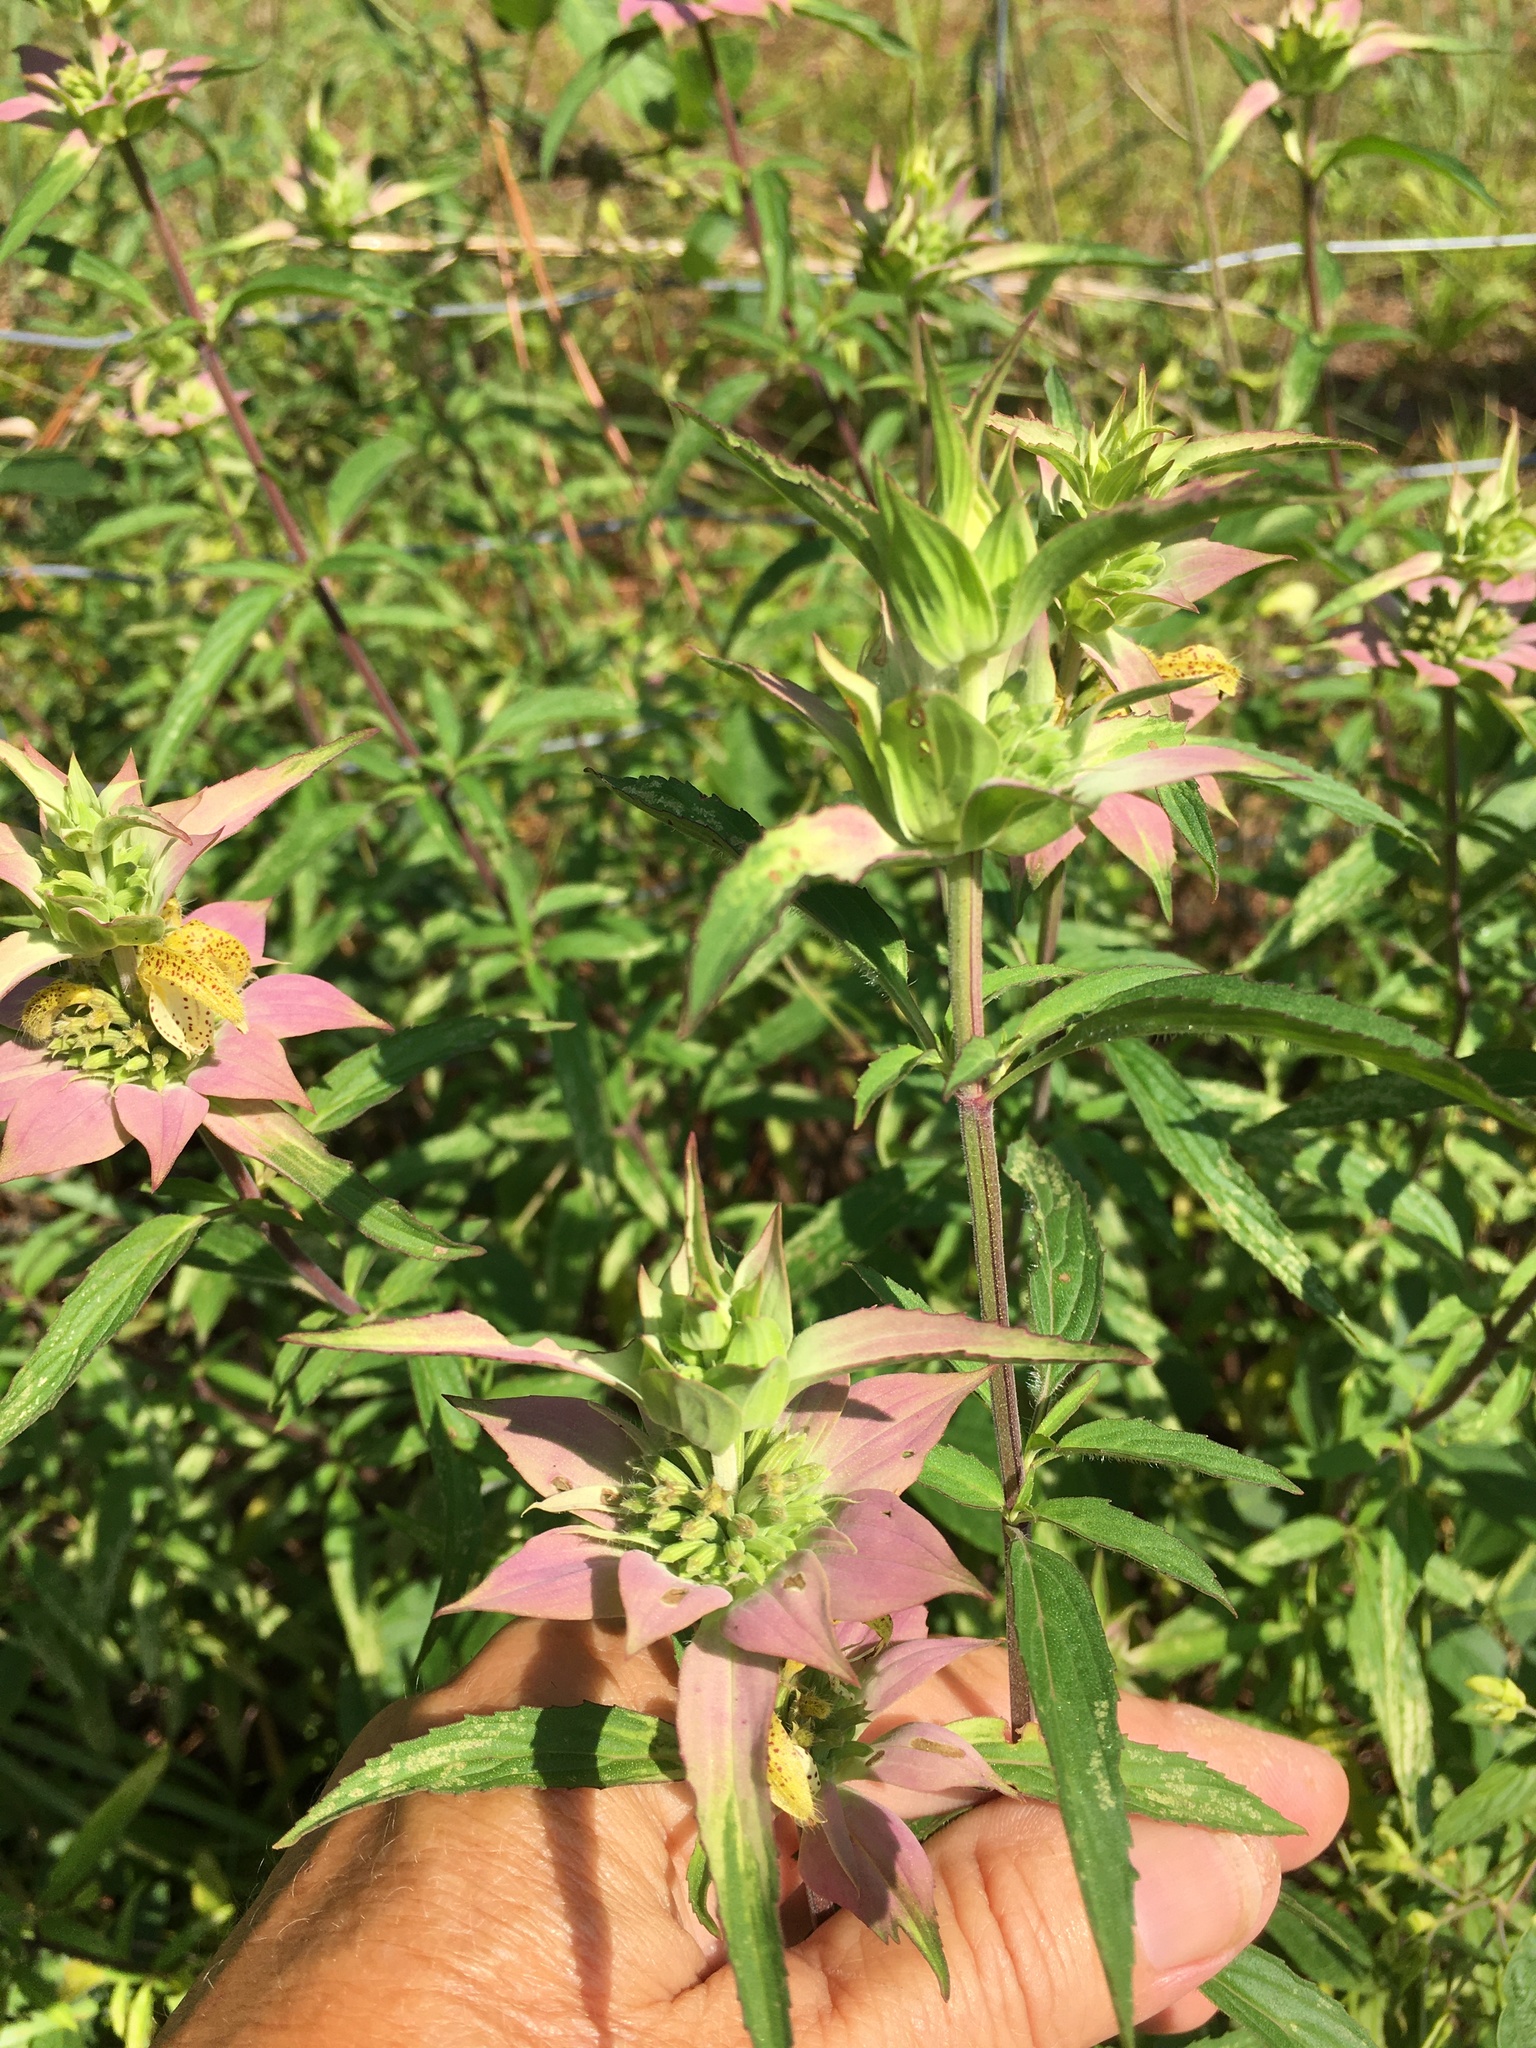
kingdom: Plantae
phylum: Tracheophyta
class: Magnoliopsida
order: Lamiales
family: Lamiaceae
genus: Monarda
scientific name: Monarda punctata
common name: Dotted monarda
